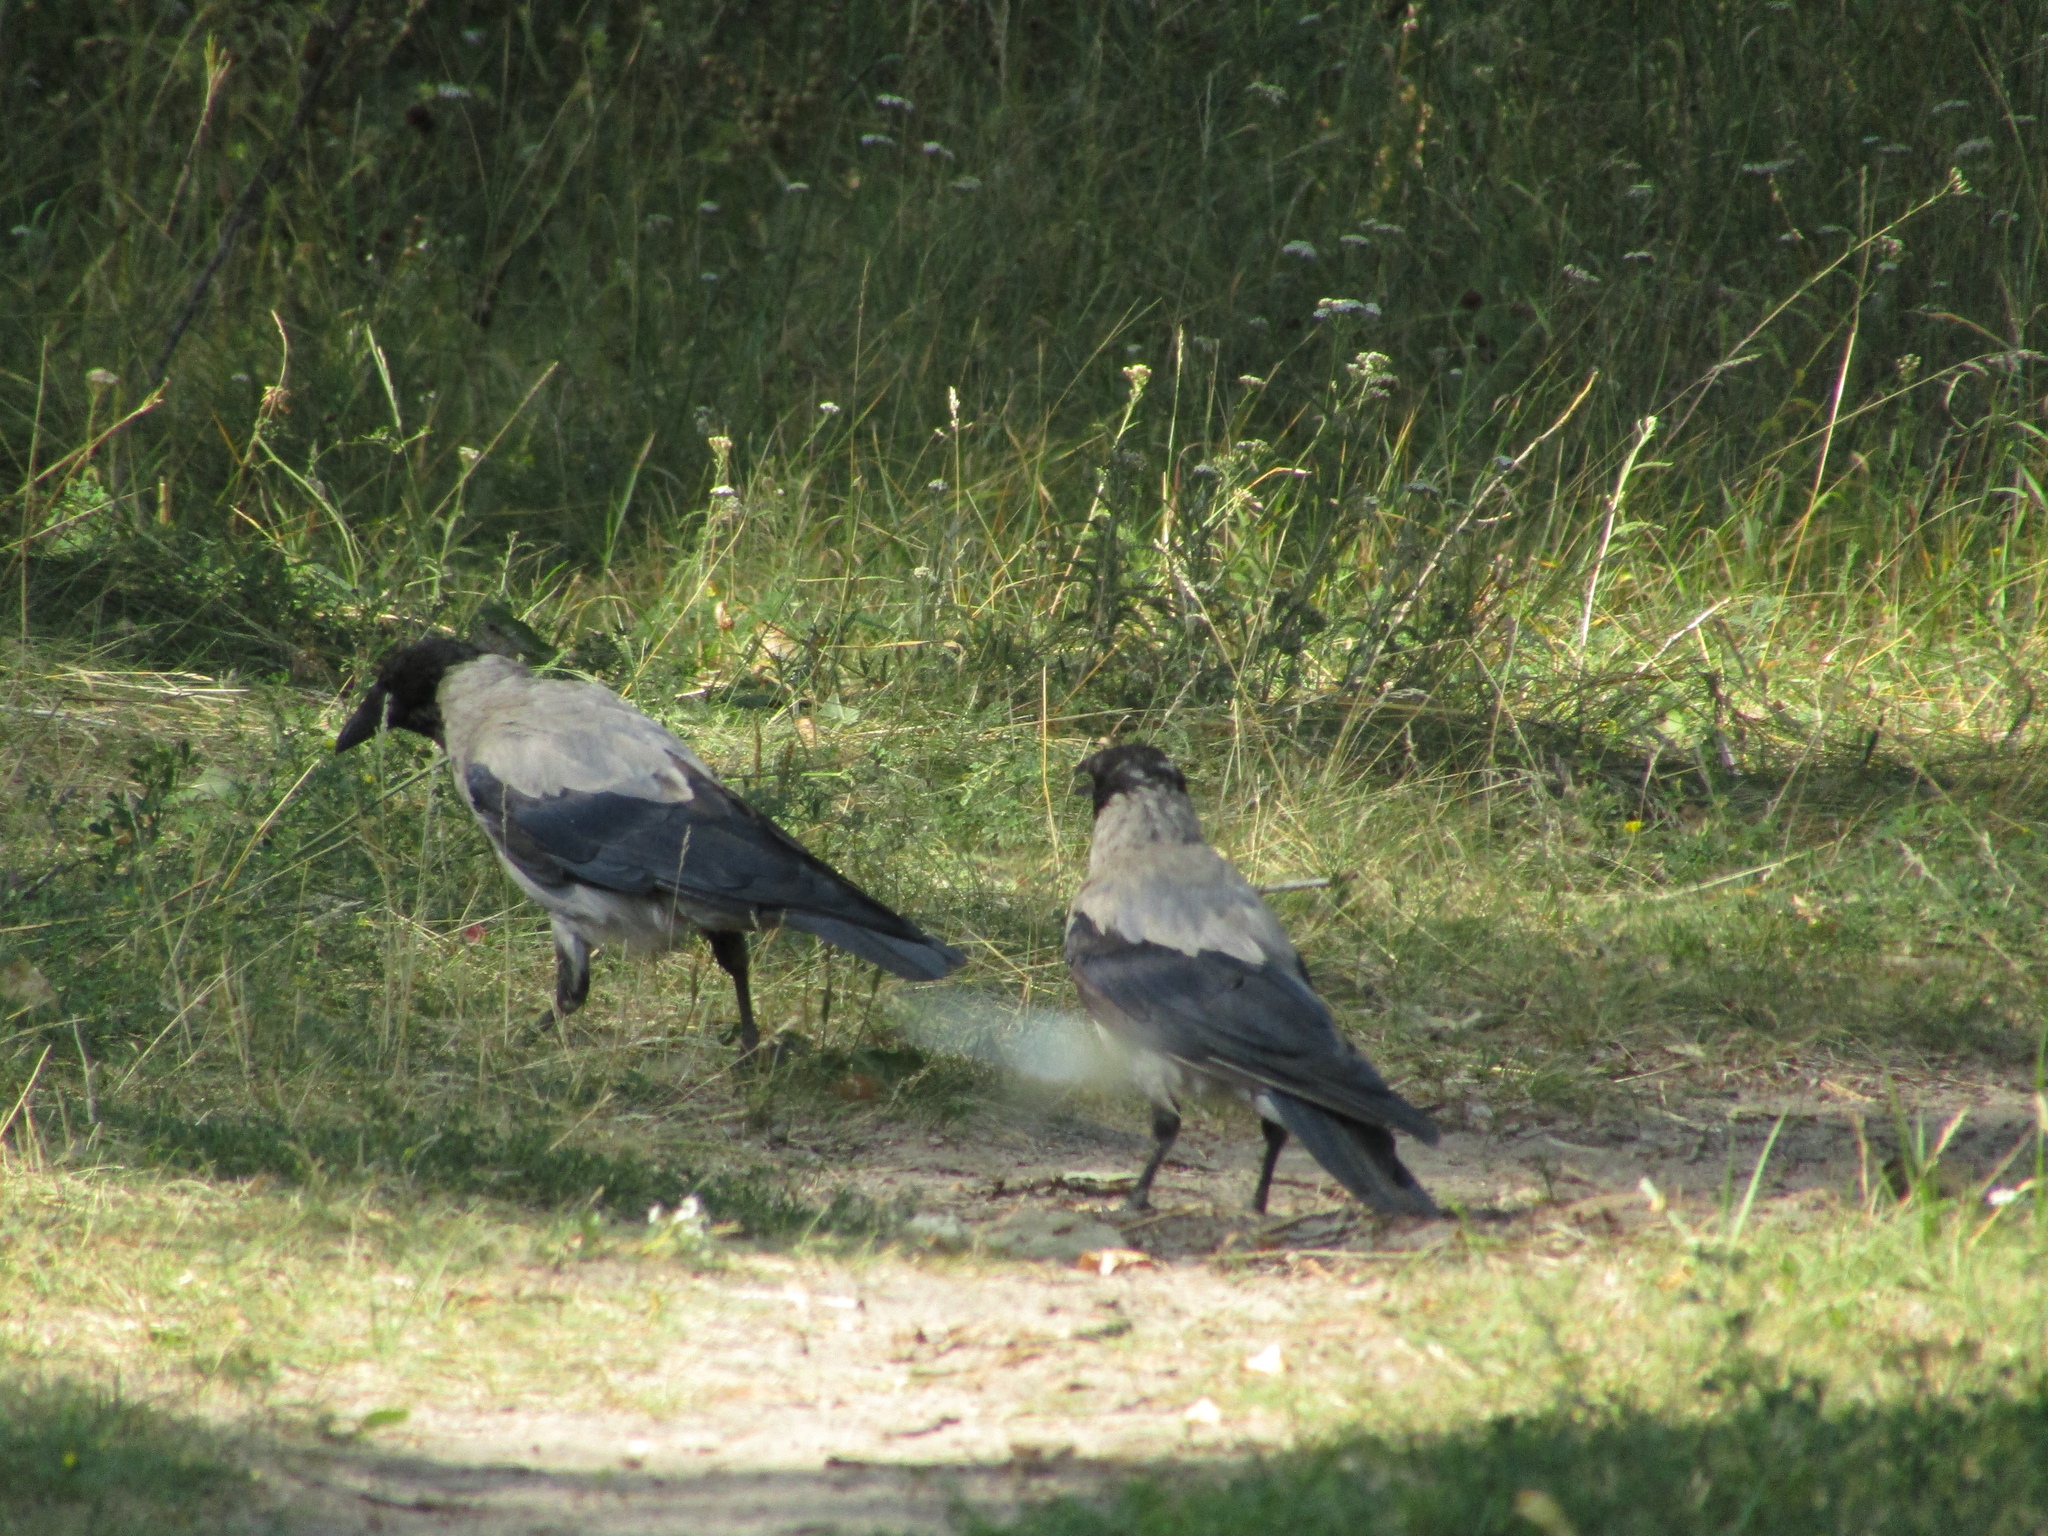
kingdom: Animalia
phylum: Chordata
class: Aves
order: Passeriformes
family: Corvidae
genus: Corvus
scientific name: Corvus cornix
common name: Hooded crow
